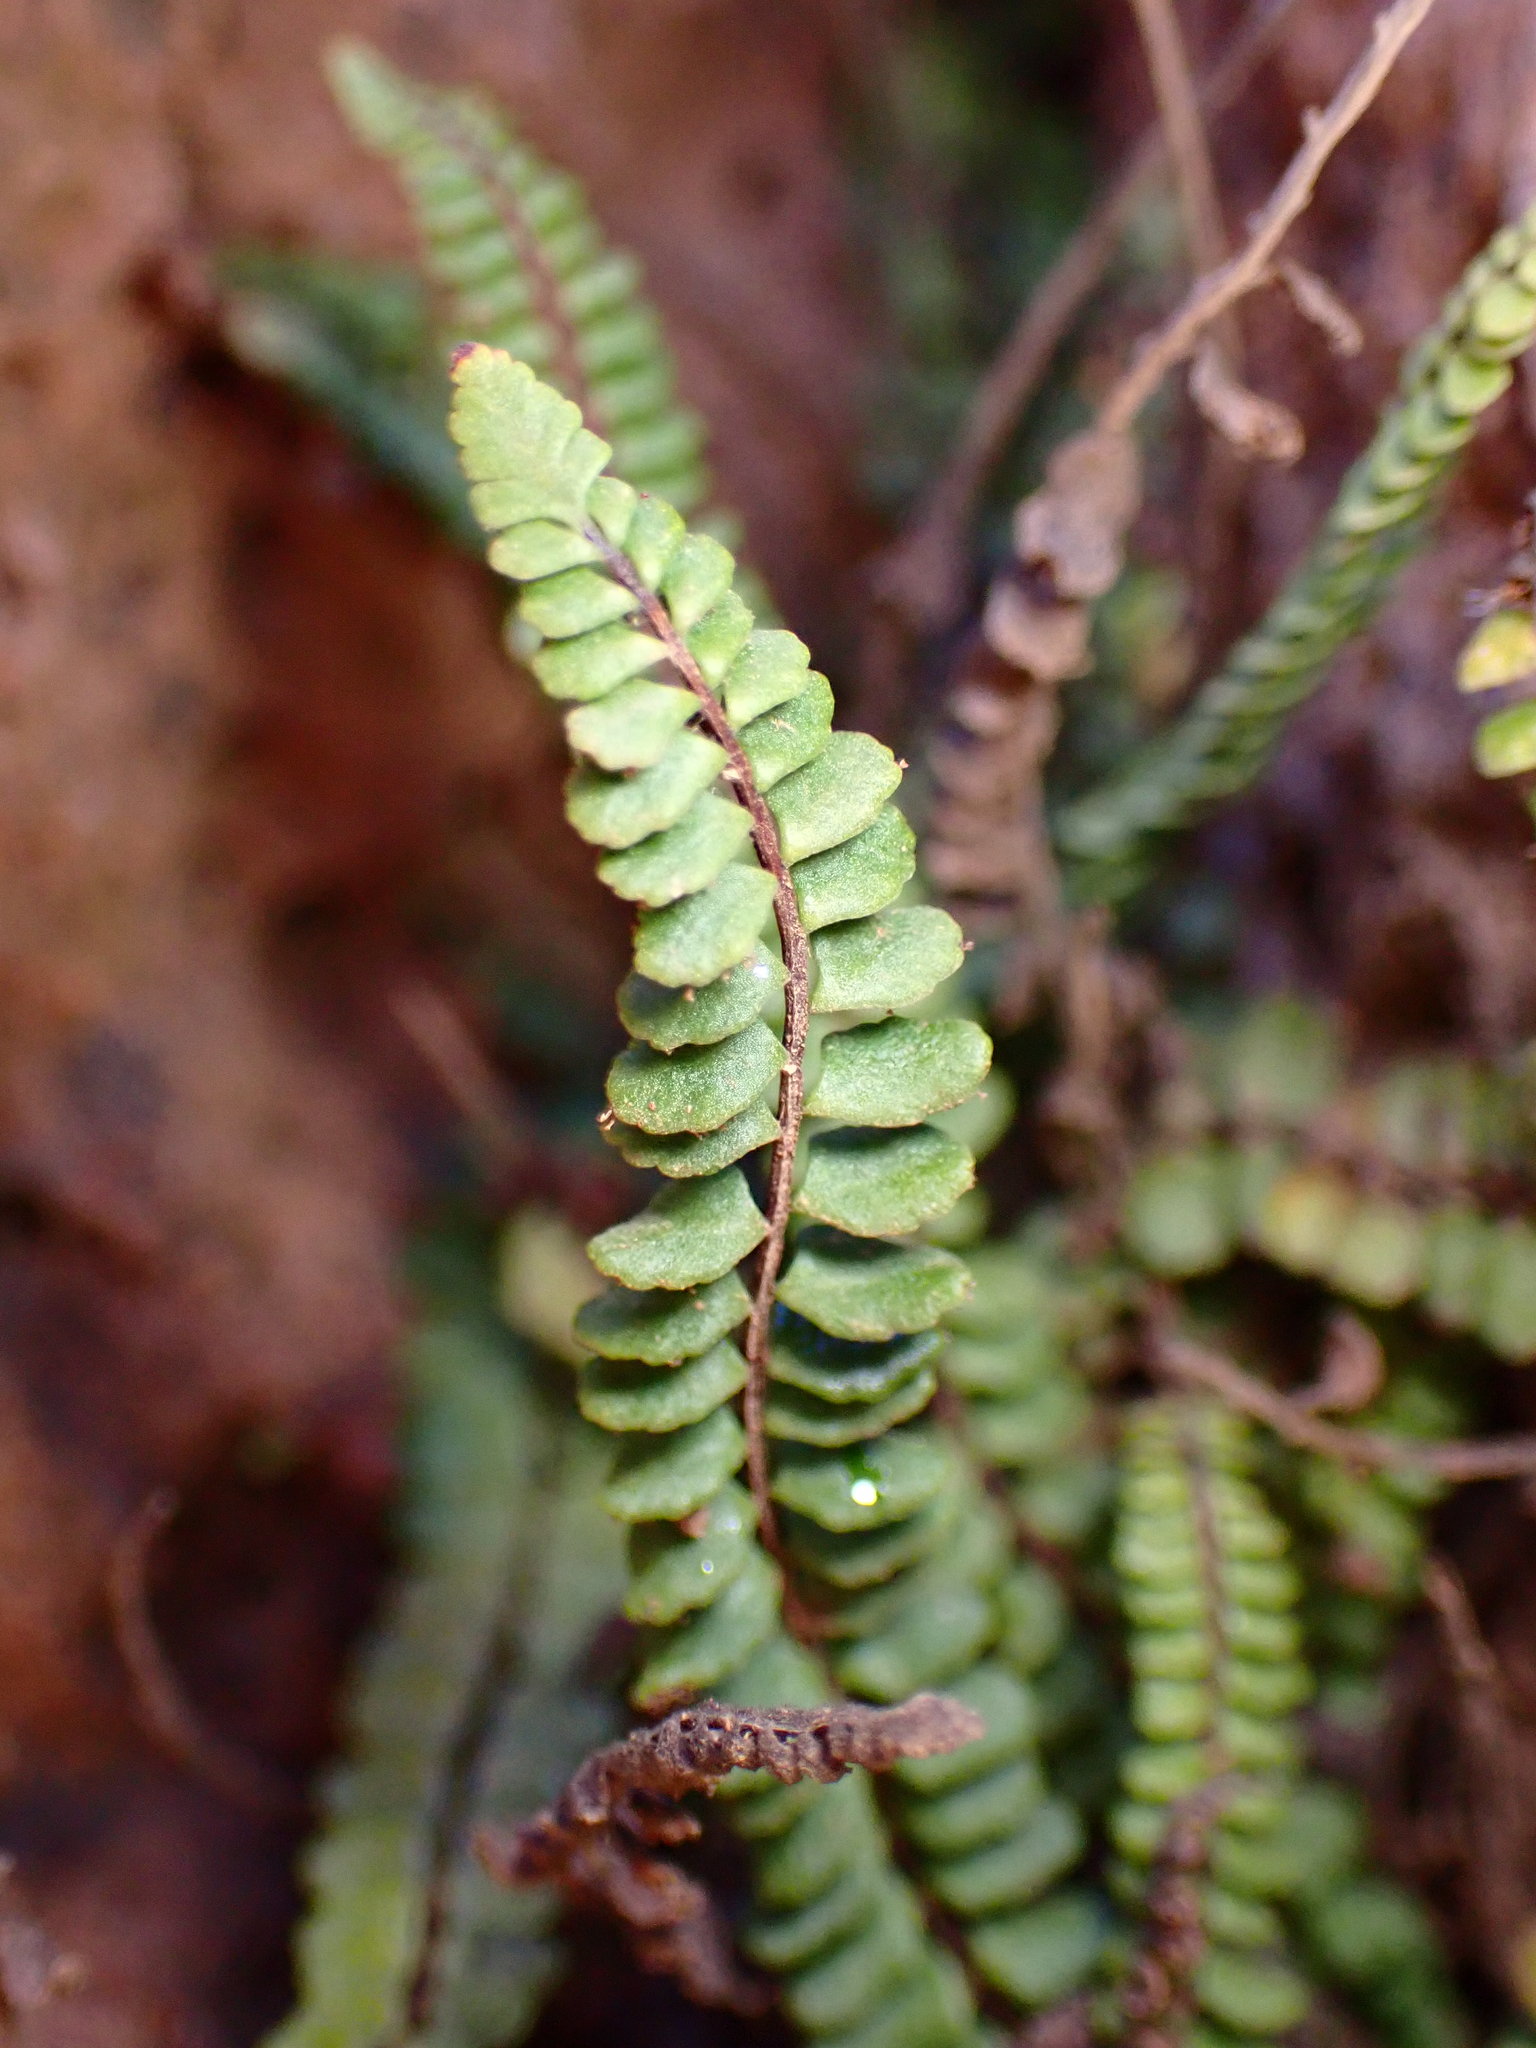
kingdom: Plantae
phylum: Tracheophyta
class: Polypodiopsida
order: Polypodiales
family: Aspleniaceae
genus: Asplenium
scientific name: Asplenium trichomanes
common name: Maidenhair spleenwort
